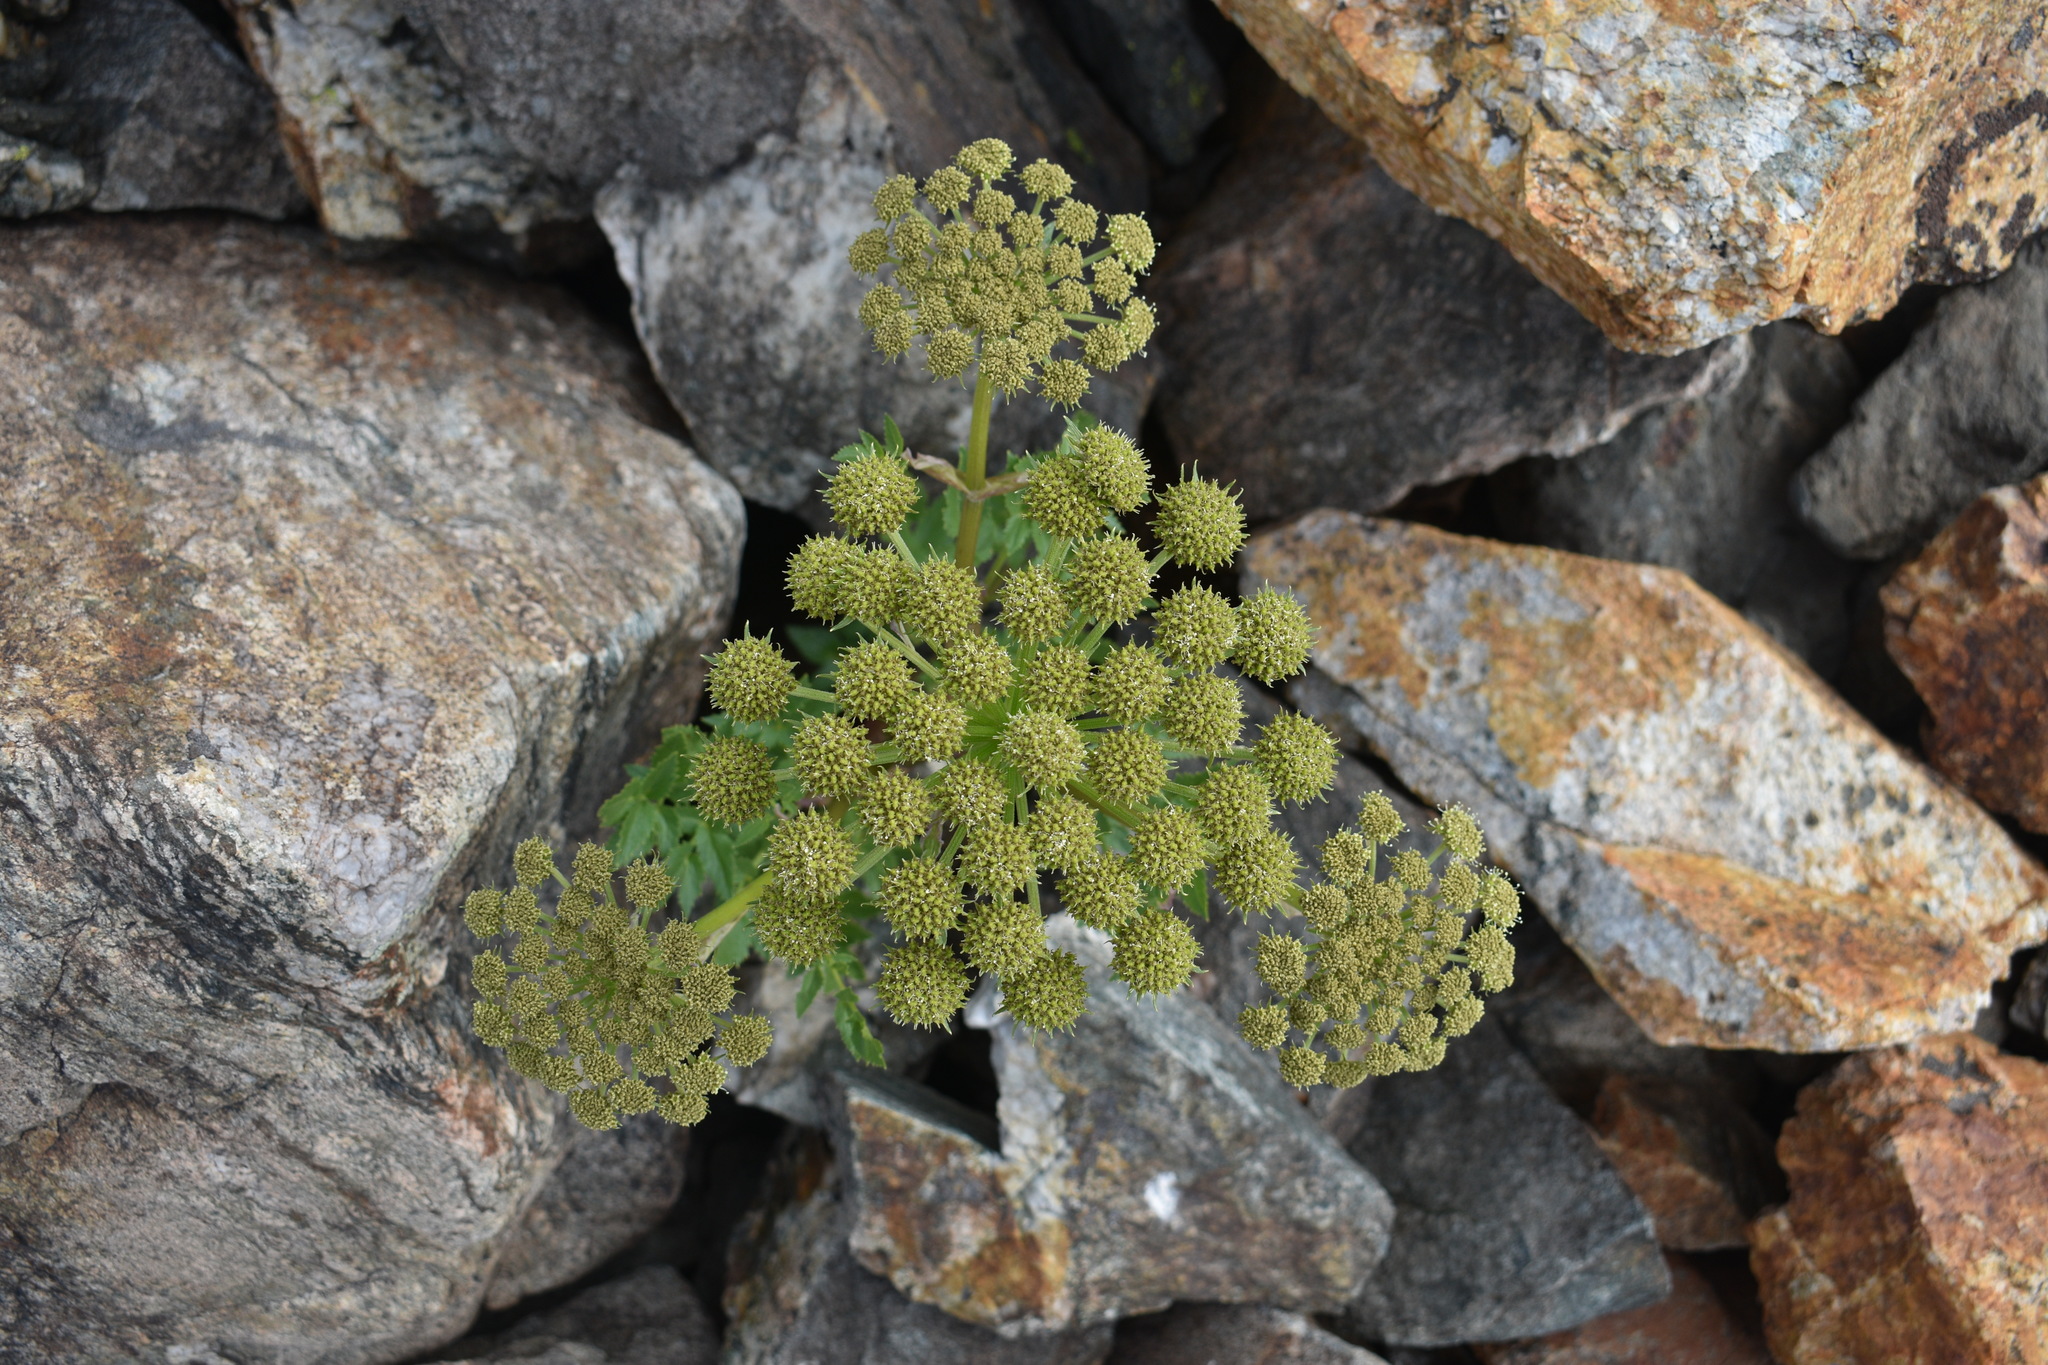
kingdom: Plantae
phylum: Tracheophyta
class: Magnoliopsida
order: Apiales
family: Apiaceae
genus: Angelica
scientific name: Angelica grayi
